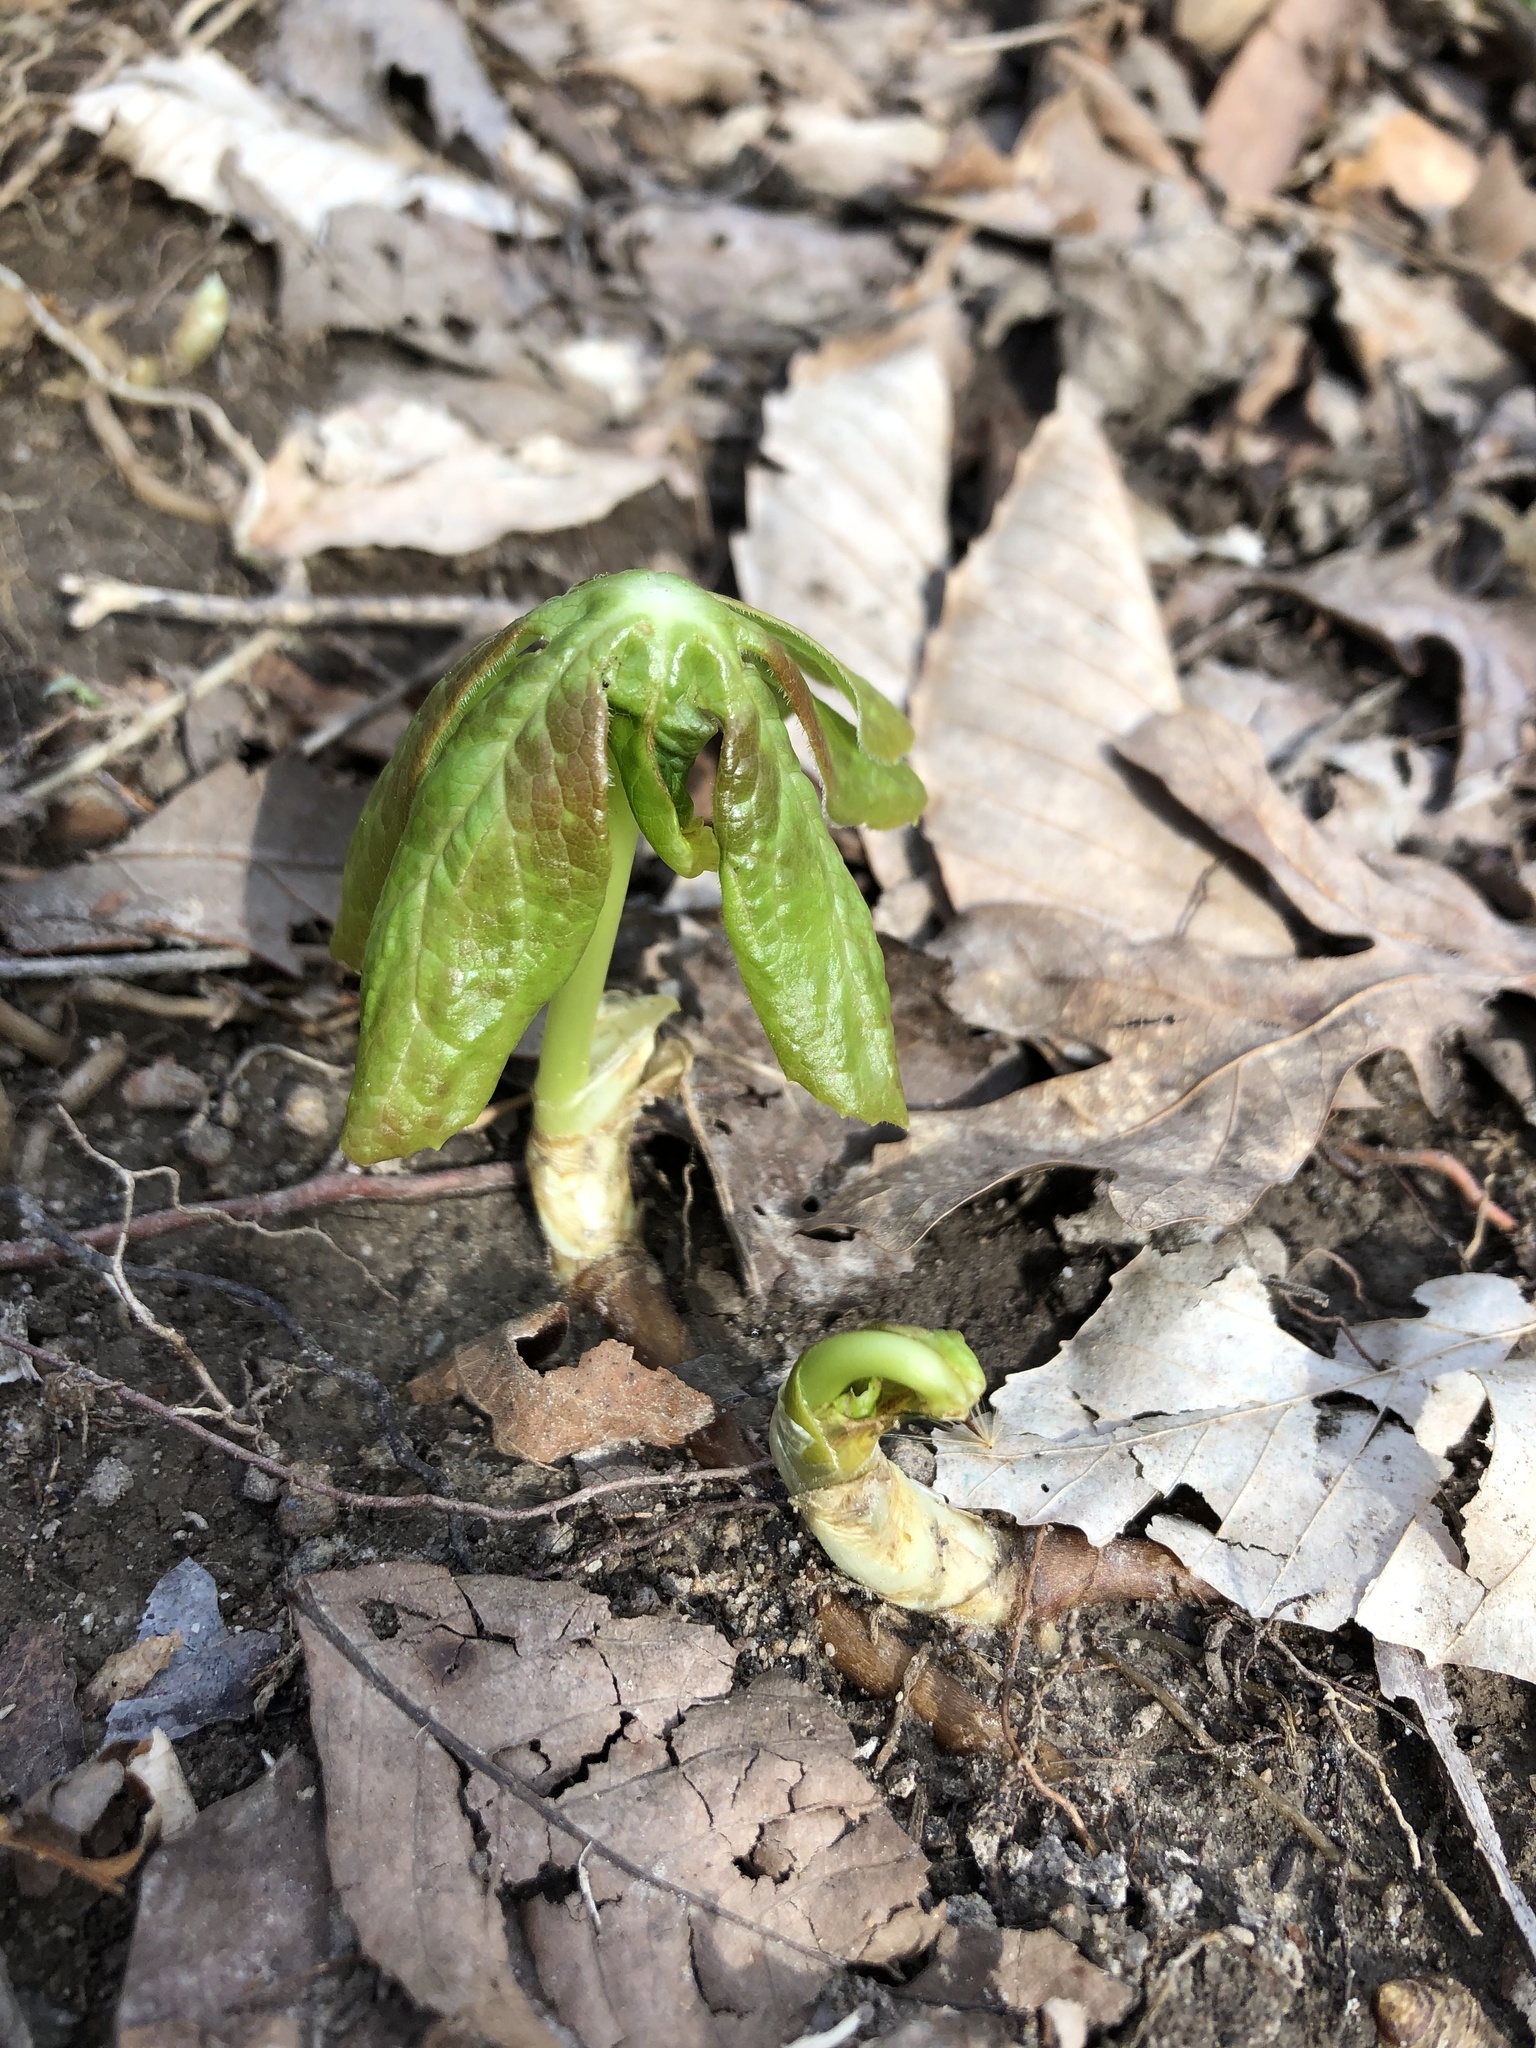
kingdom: Plantae
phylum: Tracheophyta
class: Magnoliopsida
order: Ranunculales
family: Berberidaceae
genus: Podophyllum
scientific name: Podophyllum peltatum
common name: Wild mandrake
